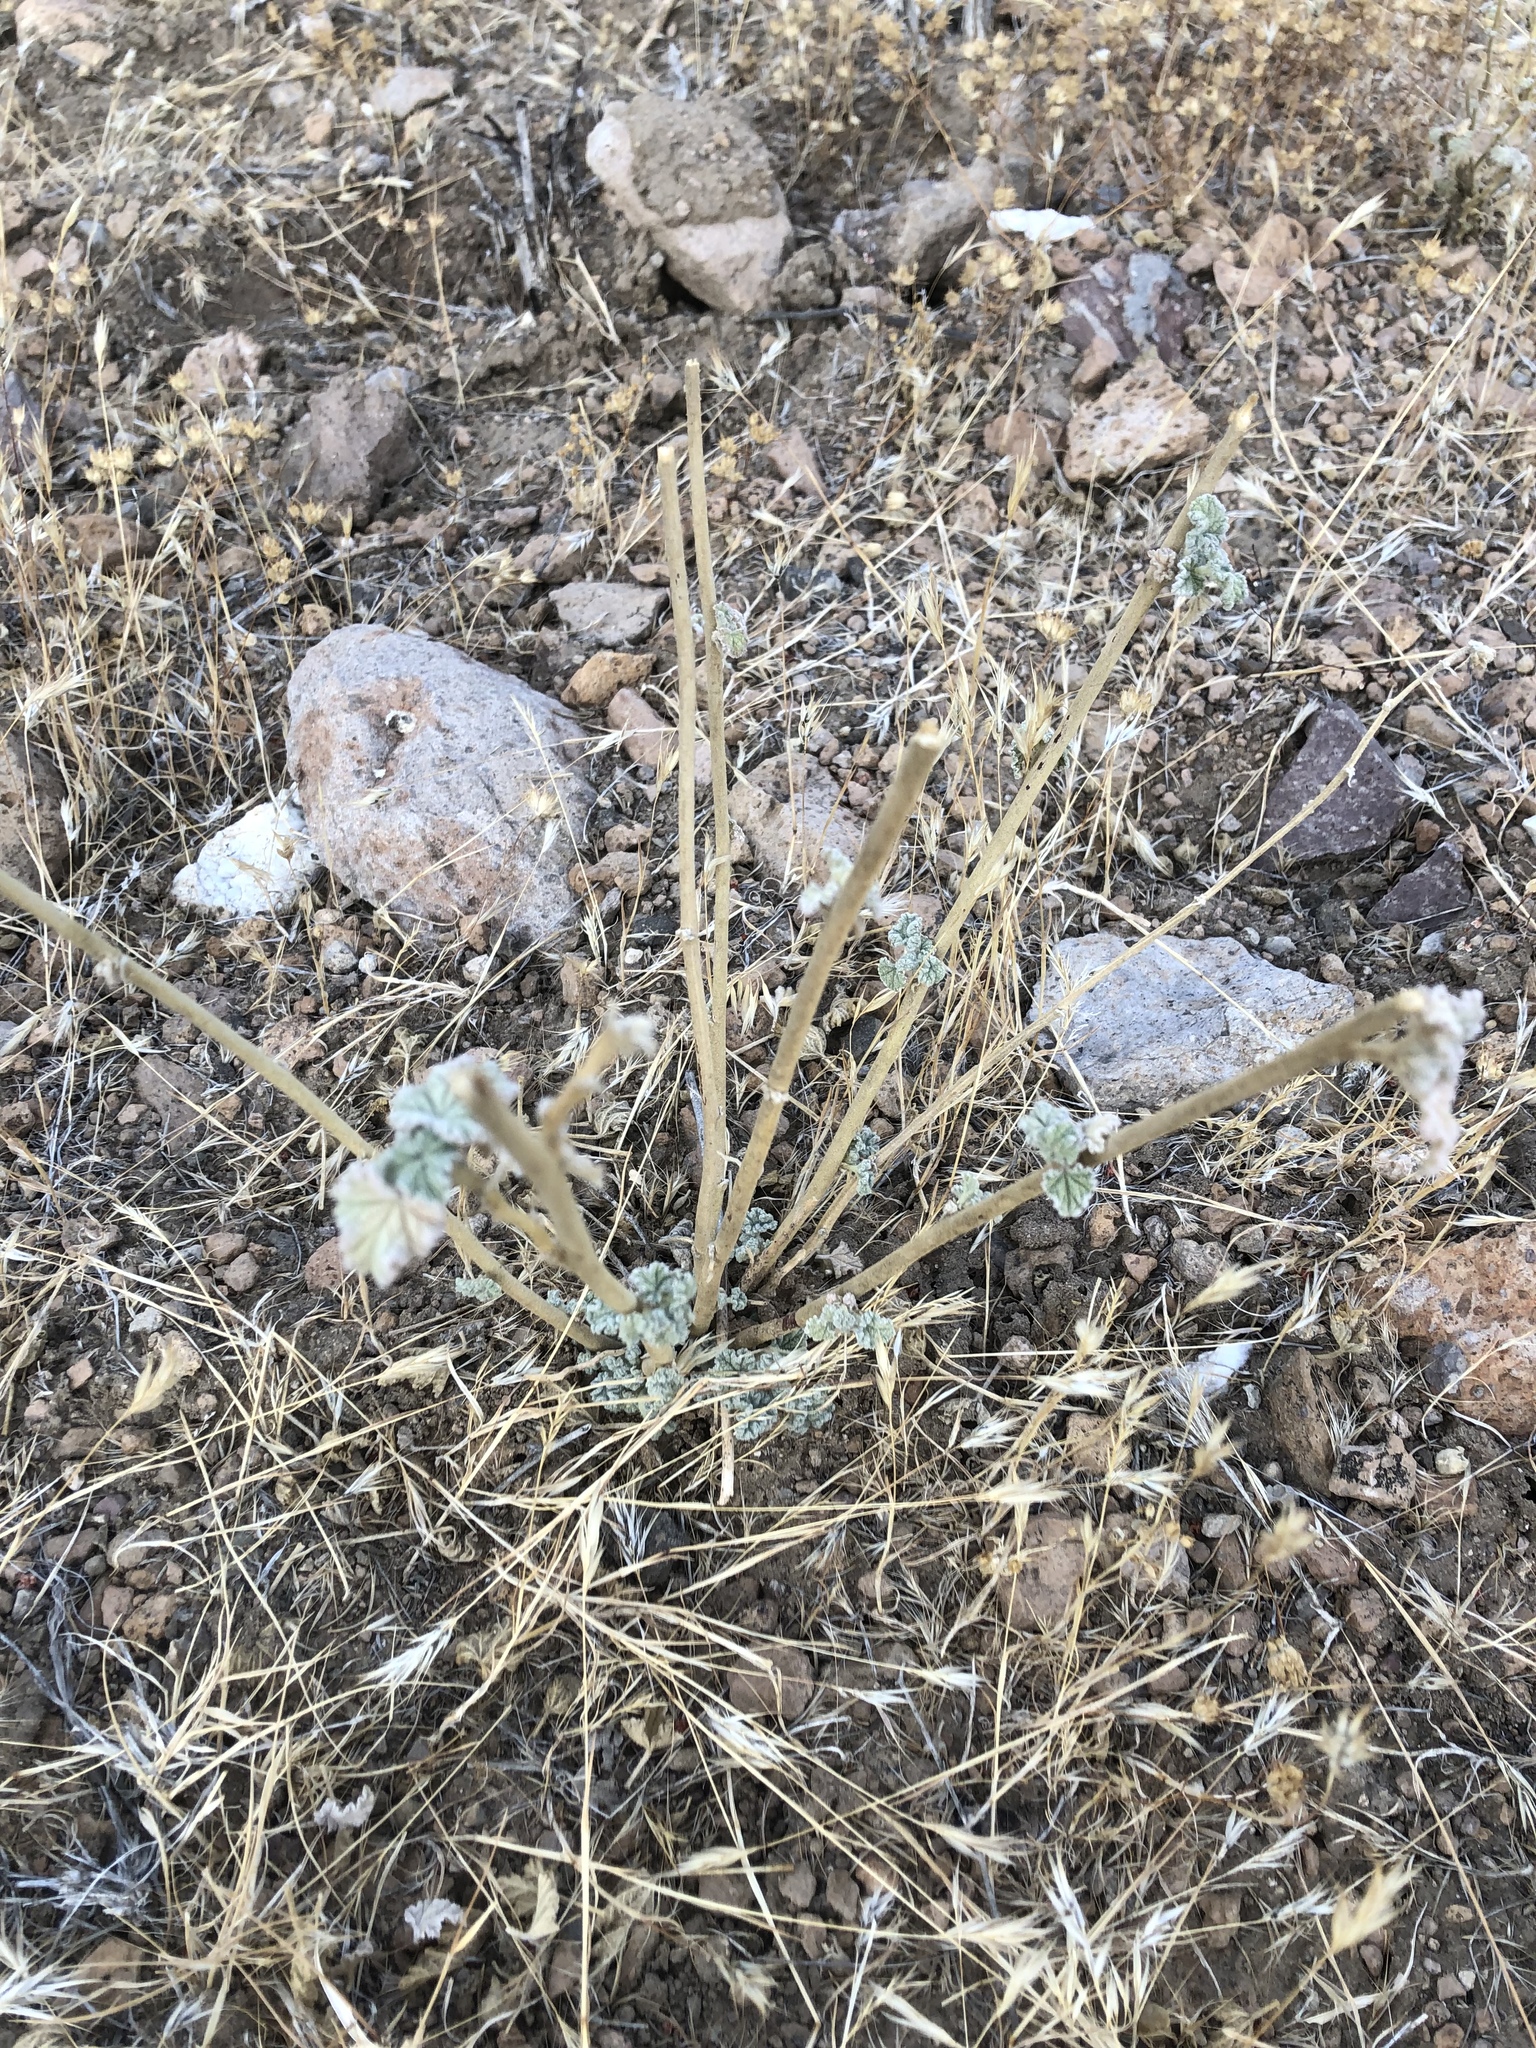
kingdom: Plantae
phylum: Tracheophyta
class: Magnoliopsida
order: Malvales
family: Malvaceae
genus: Sphaeralcea
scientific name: Sphaeralcea ambigua
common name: Apricot globe-mallow
